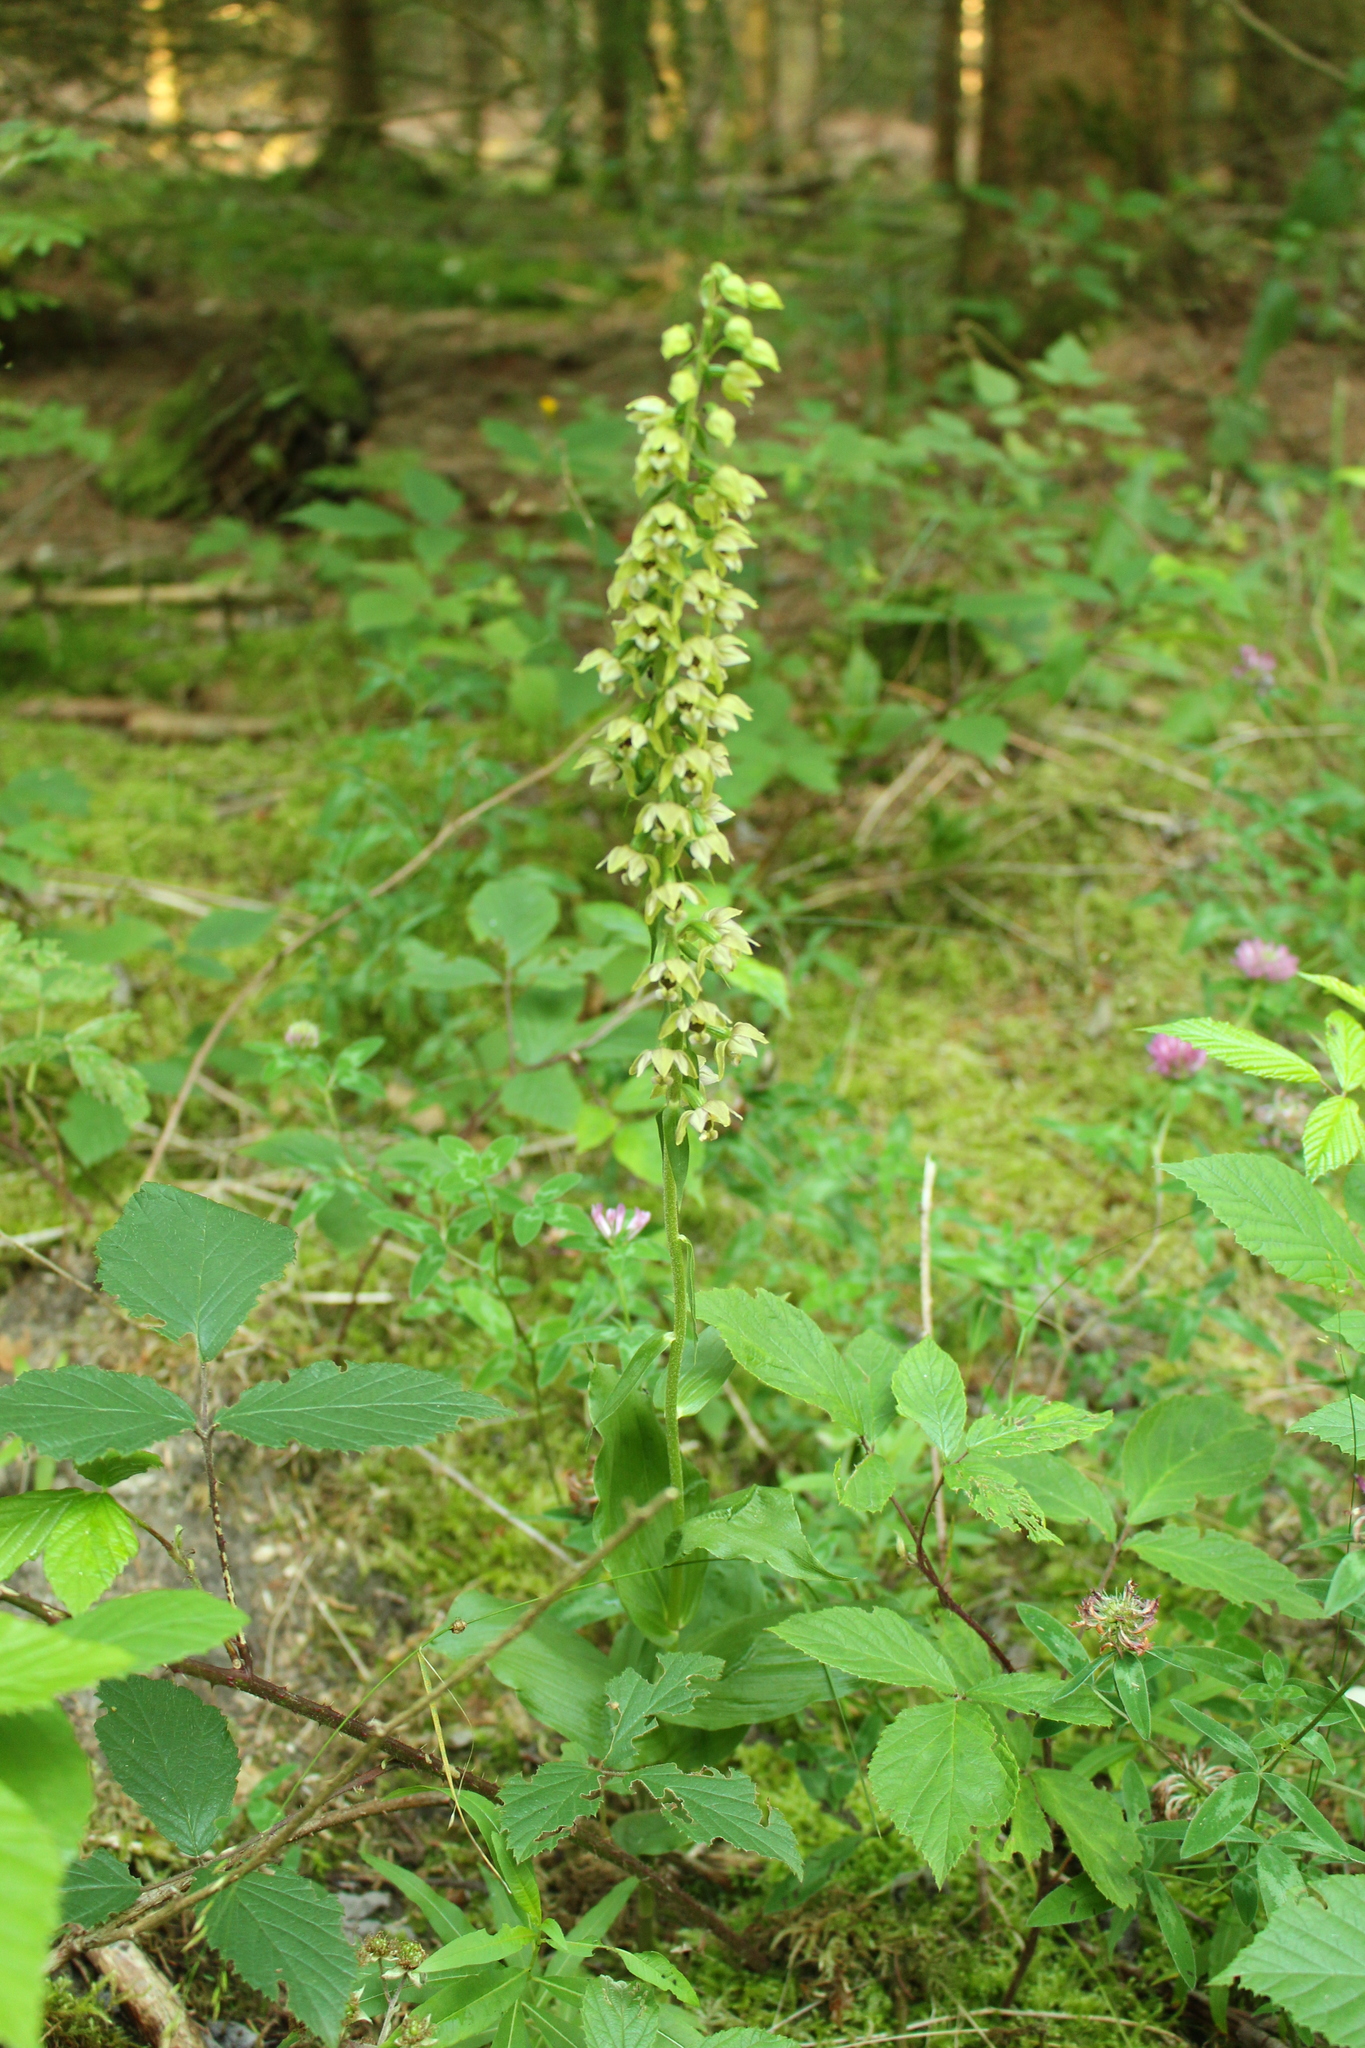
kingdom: Plantae
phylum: Tracheophyta
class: Liliopsida
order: Asparagales
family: Orchidaceae
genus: Epipactis
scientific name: Epipactis helleborine
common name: Broad-leaved helleborine
